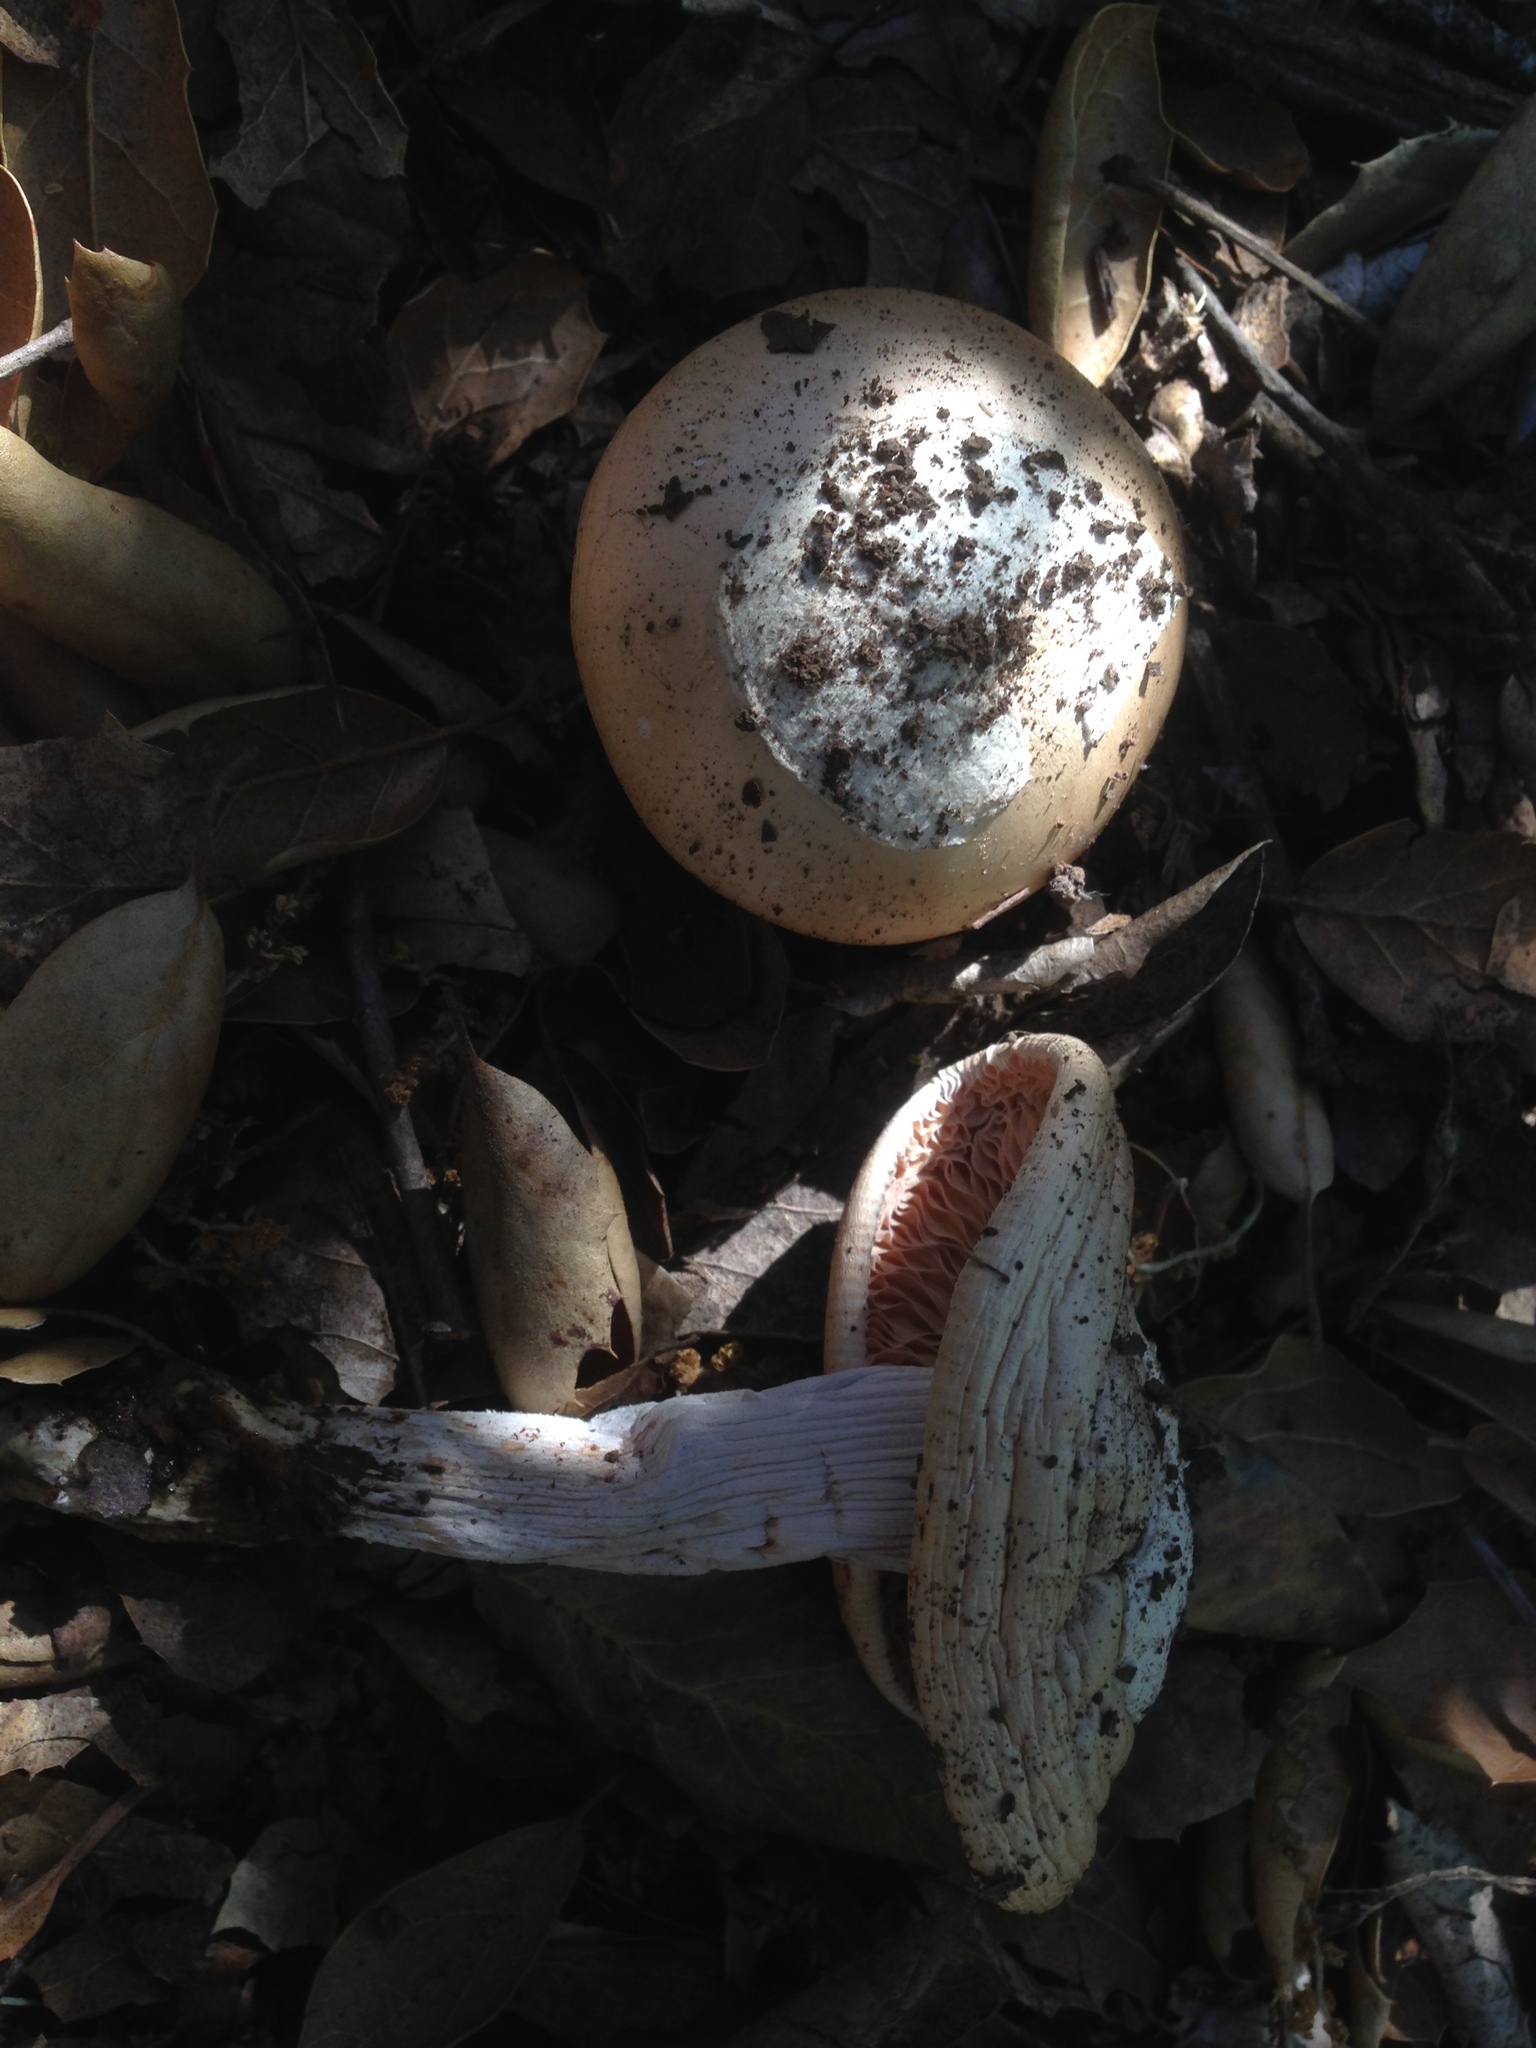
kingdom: Fungi
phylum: Basidiomycota
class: Agaricomycetes
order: Agaricales
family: Amanitaceae
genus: Amanita
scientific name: Amanita velosa
